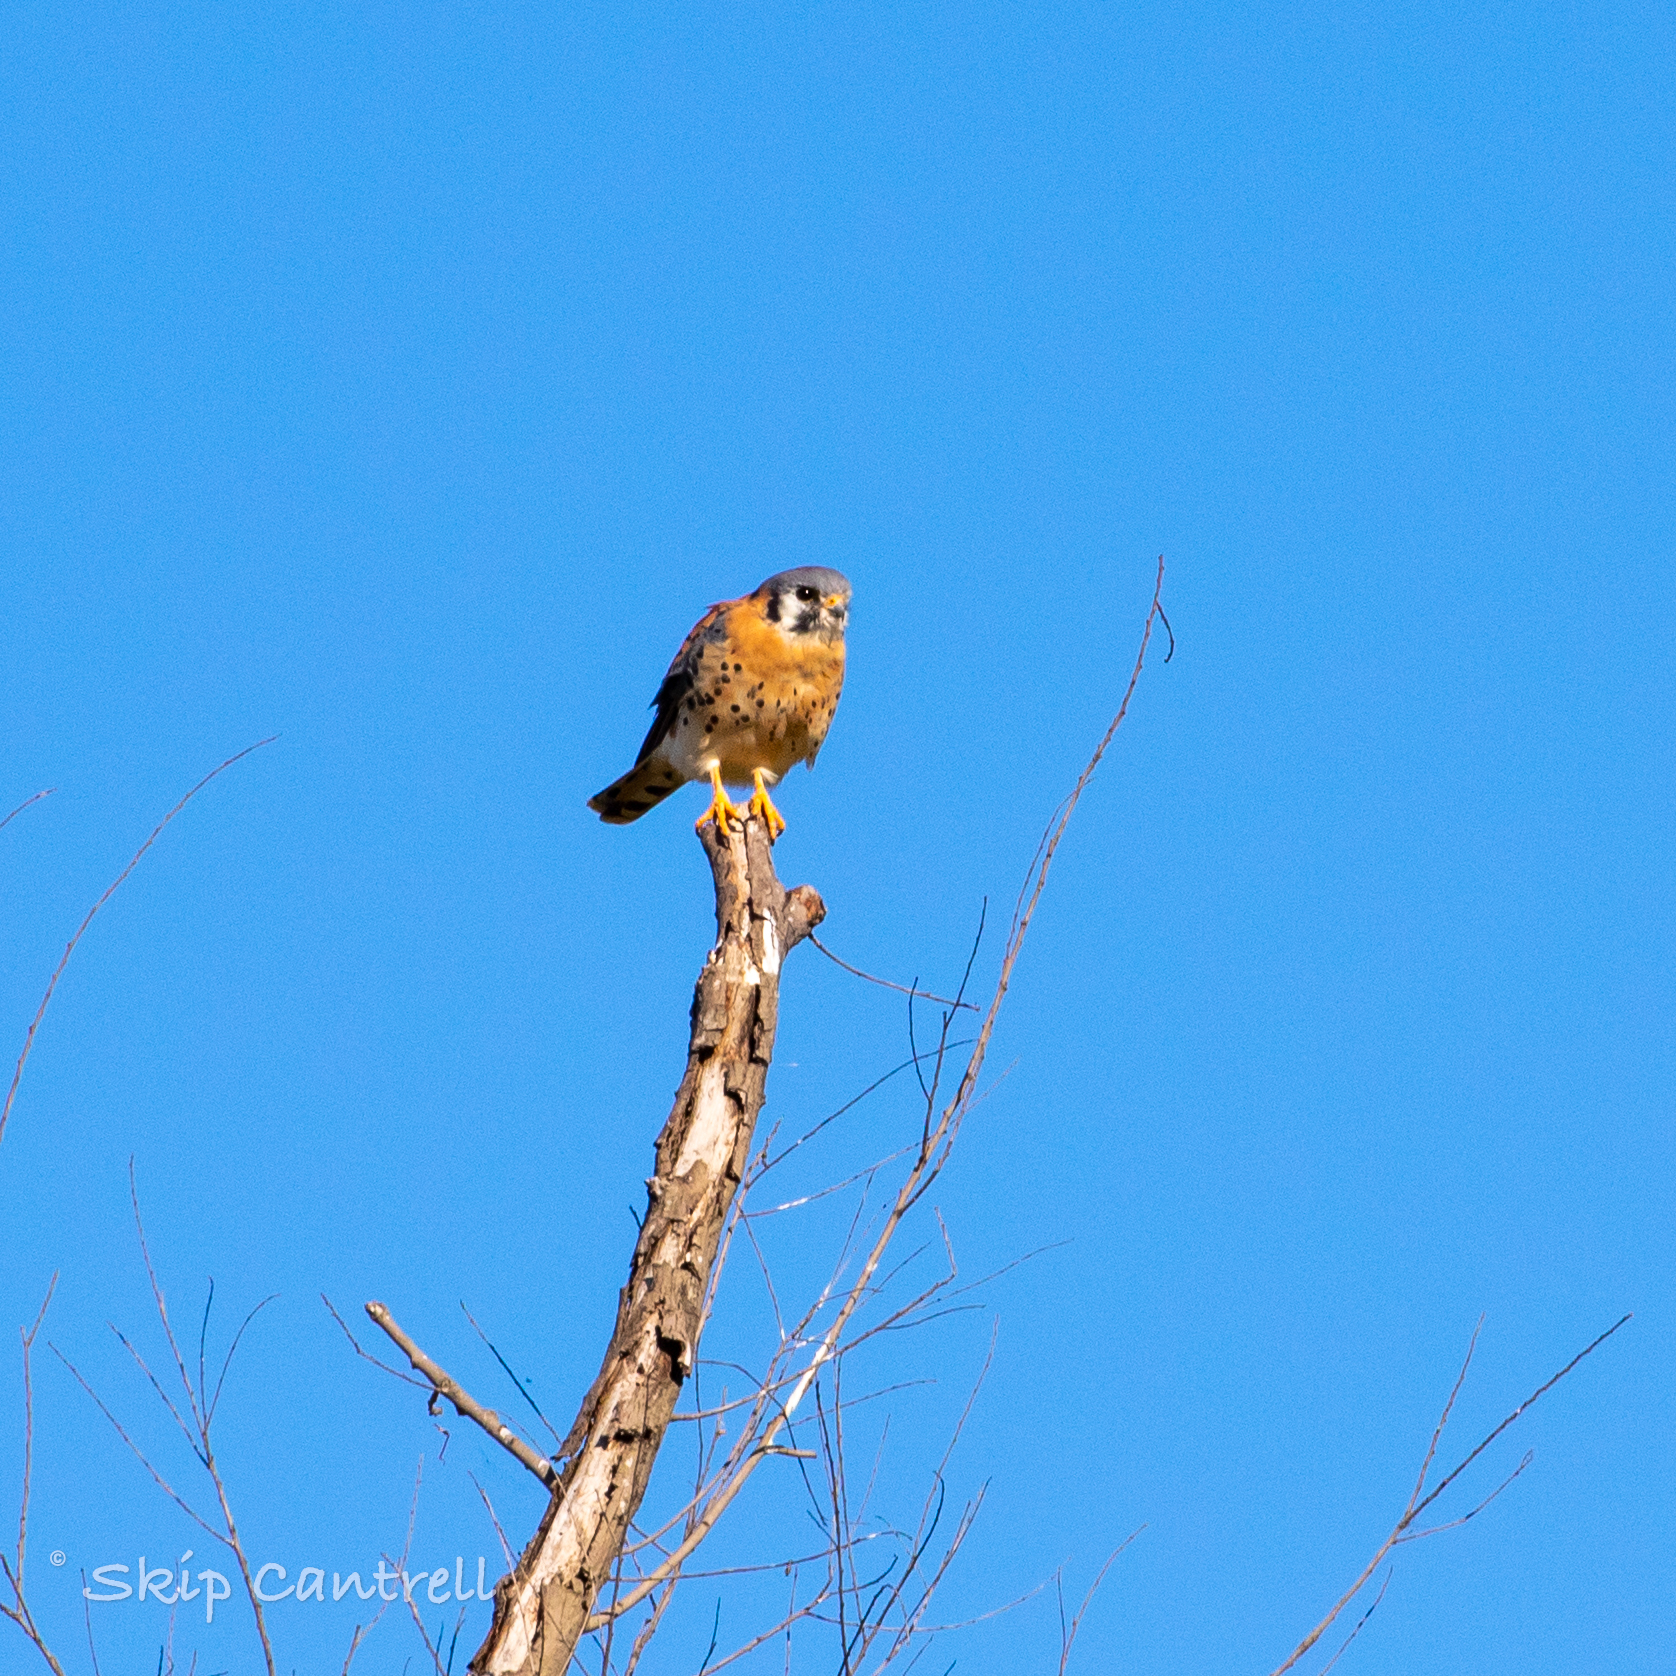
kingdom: Animalia
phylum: Chordata
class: Aves
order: Falconiformes
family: Falconidae
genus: Falco
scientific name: Falco sparverius
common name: American kestrel
